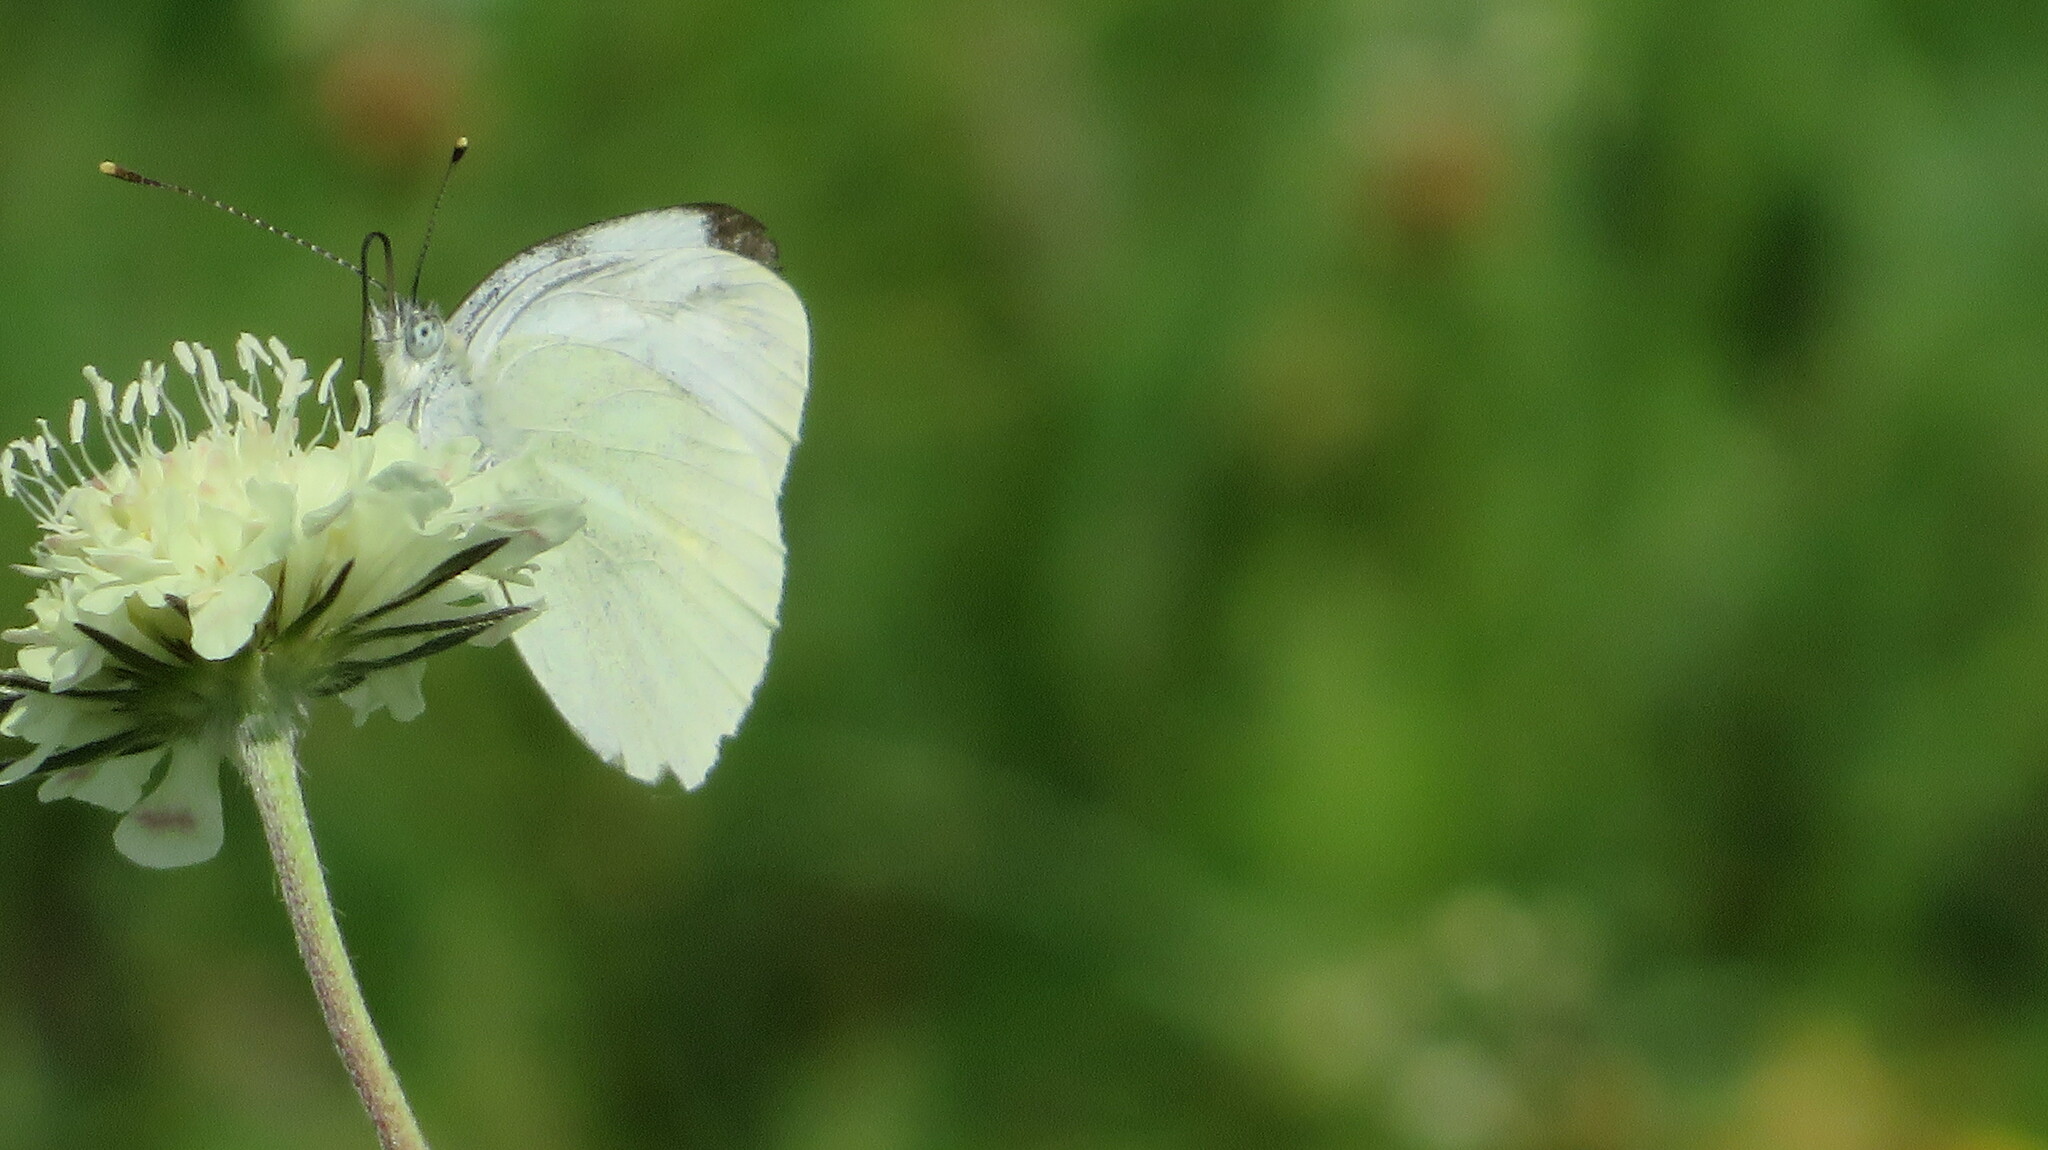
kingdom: Animalia
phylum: Arthropoda
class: Insecta
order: Lepidoptera
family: Pieridae
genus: Pieris
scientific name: Pieris napi
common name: Green-veined white
